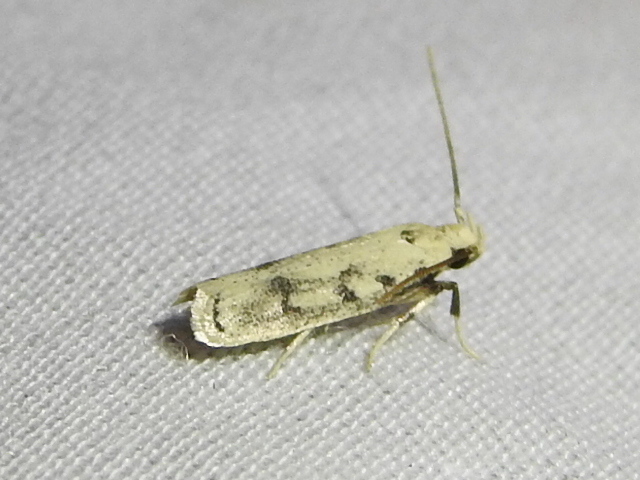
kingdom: Animalia
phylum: Arthropoda
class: Insecta
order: Lepidoptera
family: Autostichidae
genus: Glyphidocera
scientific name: Glyphidocera lactiflosella
